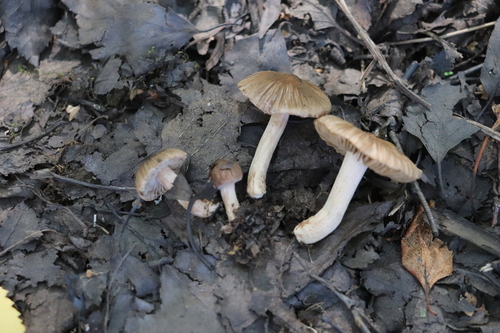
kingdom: Fungi
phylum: Basidiomycota
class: Agaricomycetes
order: Agaricales
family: Inocybaceae
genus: Inocybe
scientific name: Inocybe
